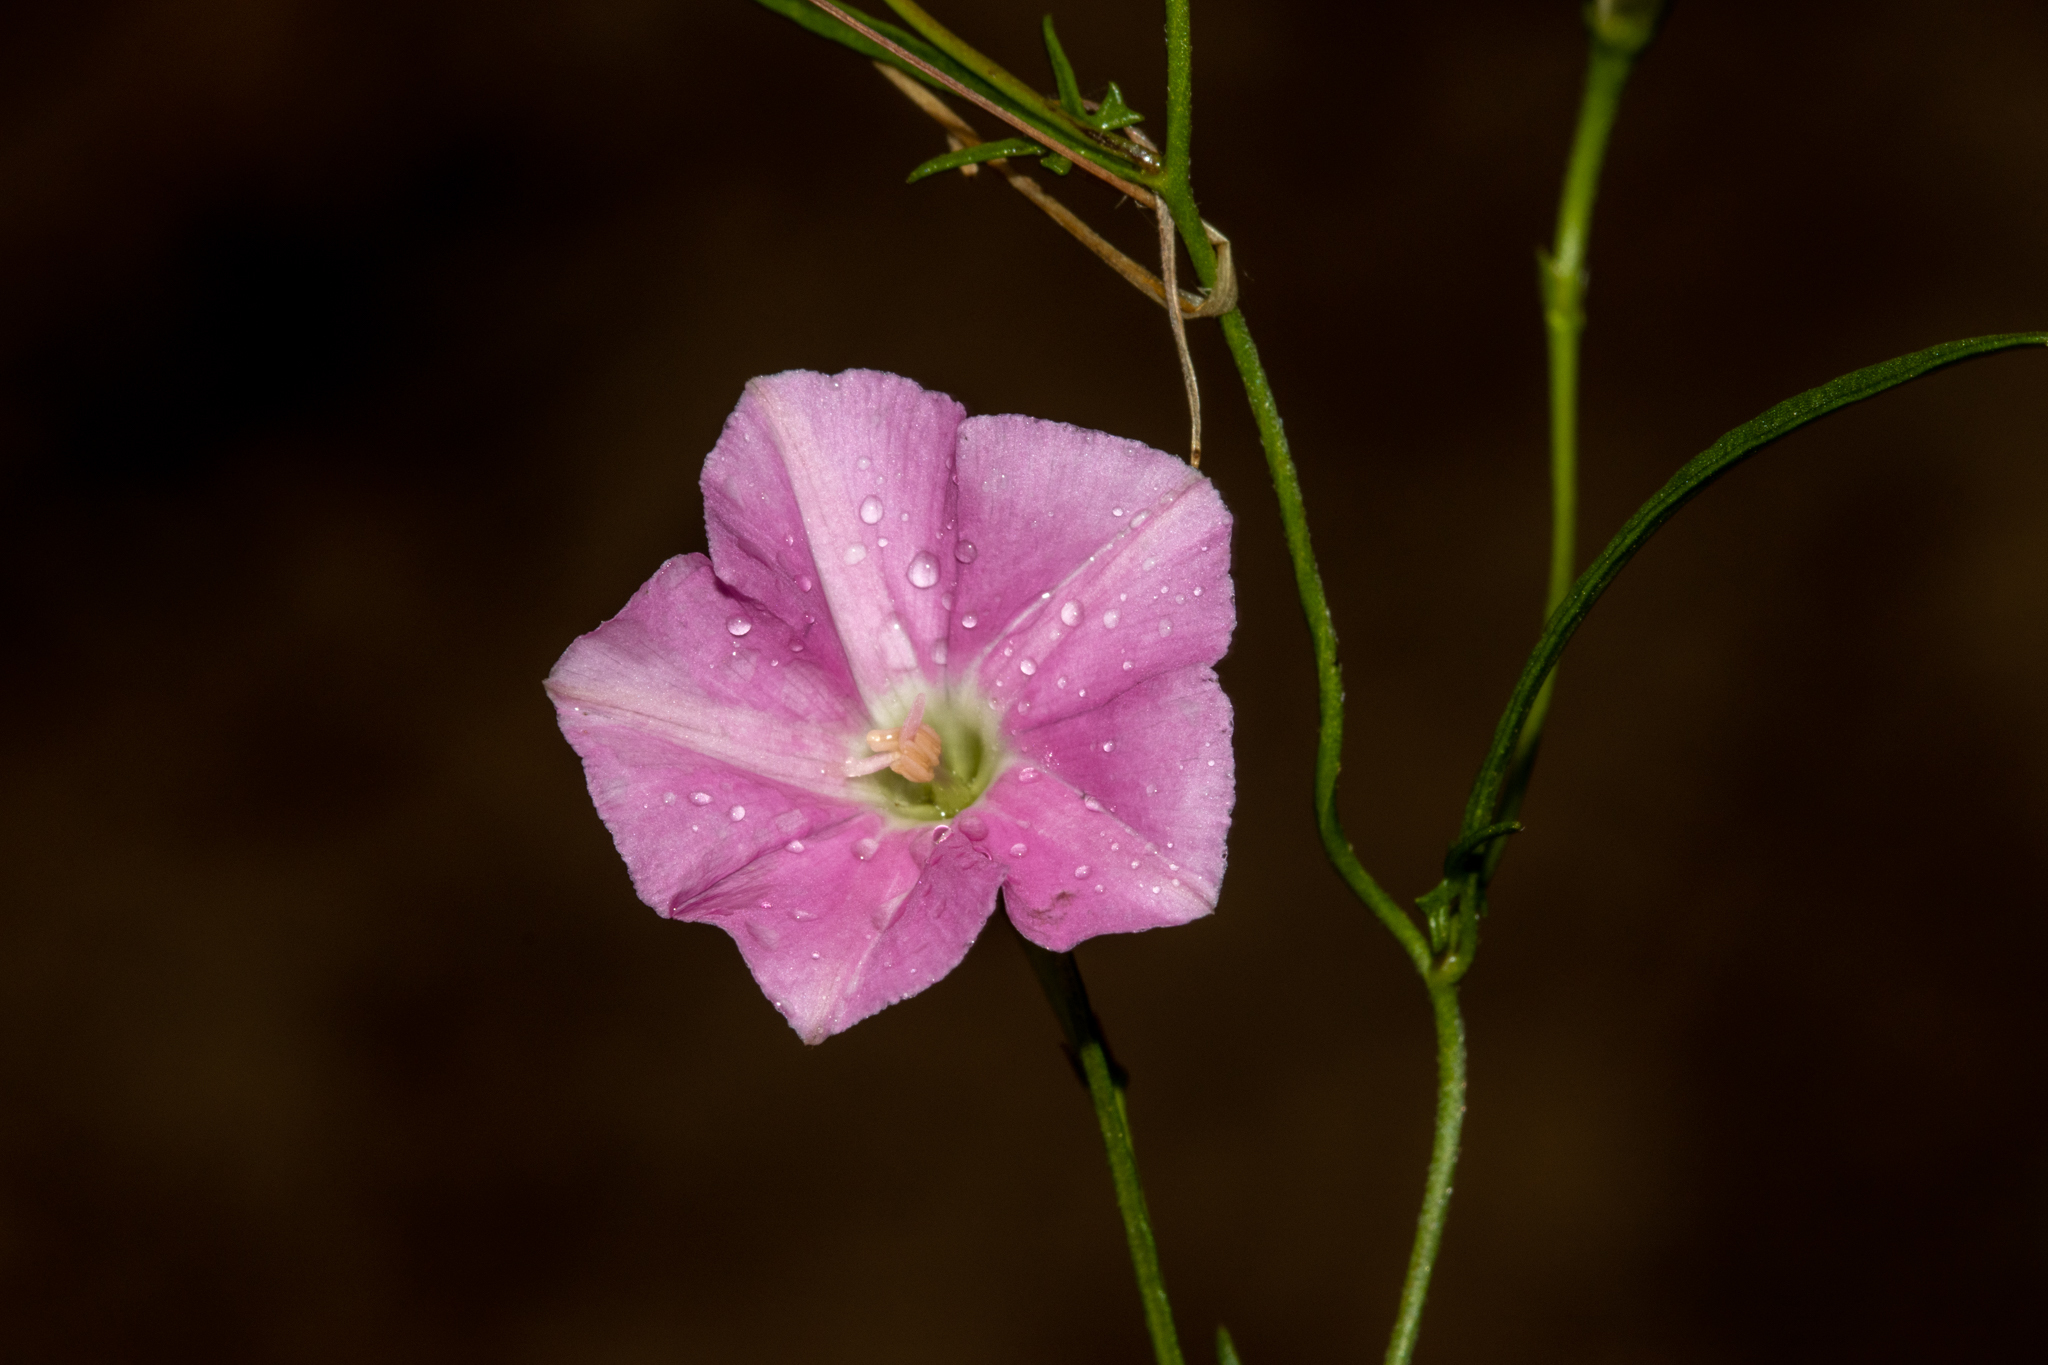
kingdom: Plantae
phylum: Tracheophyta
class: Magnoliopsida
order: Solanales
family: Convolvulaceae
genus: Convolvulus
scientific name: Convolvulus angustissimus
